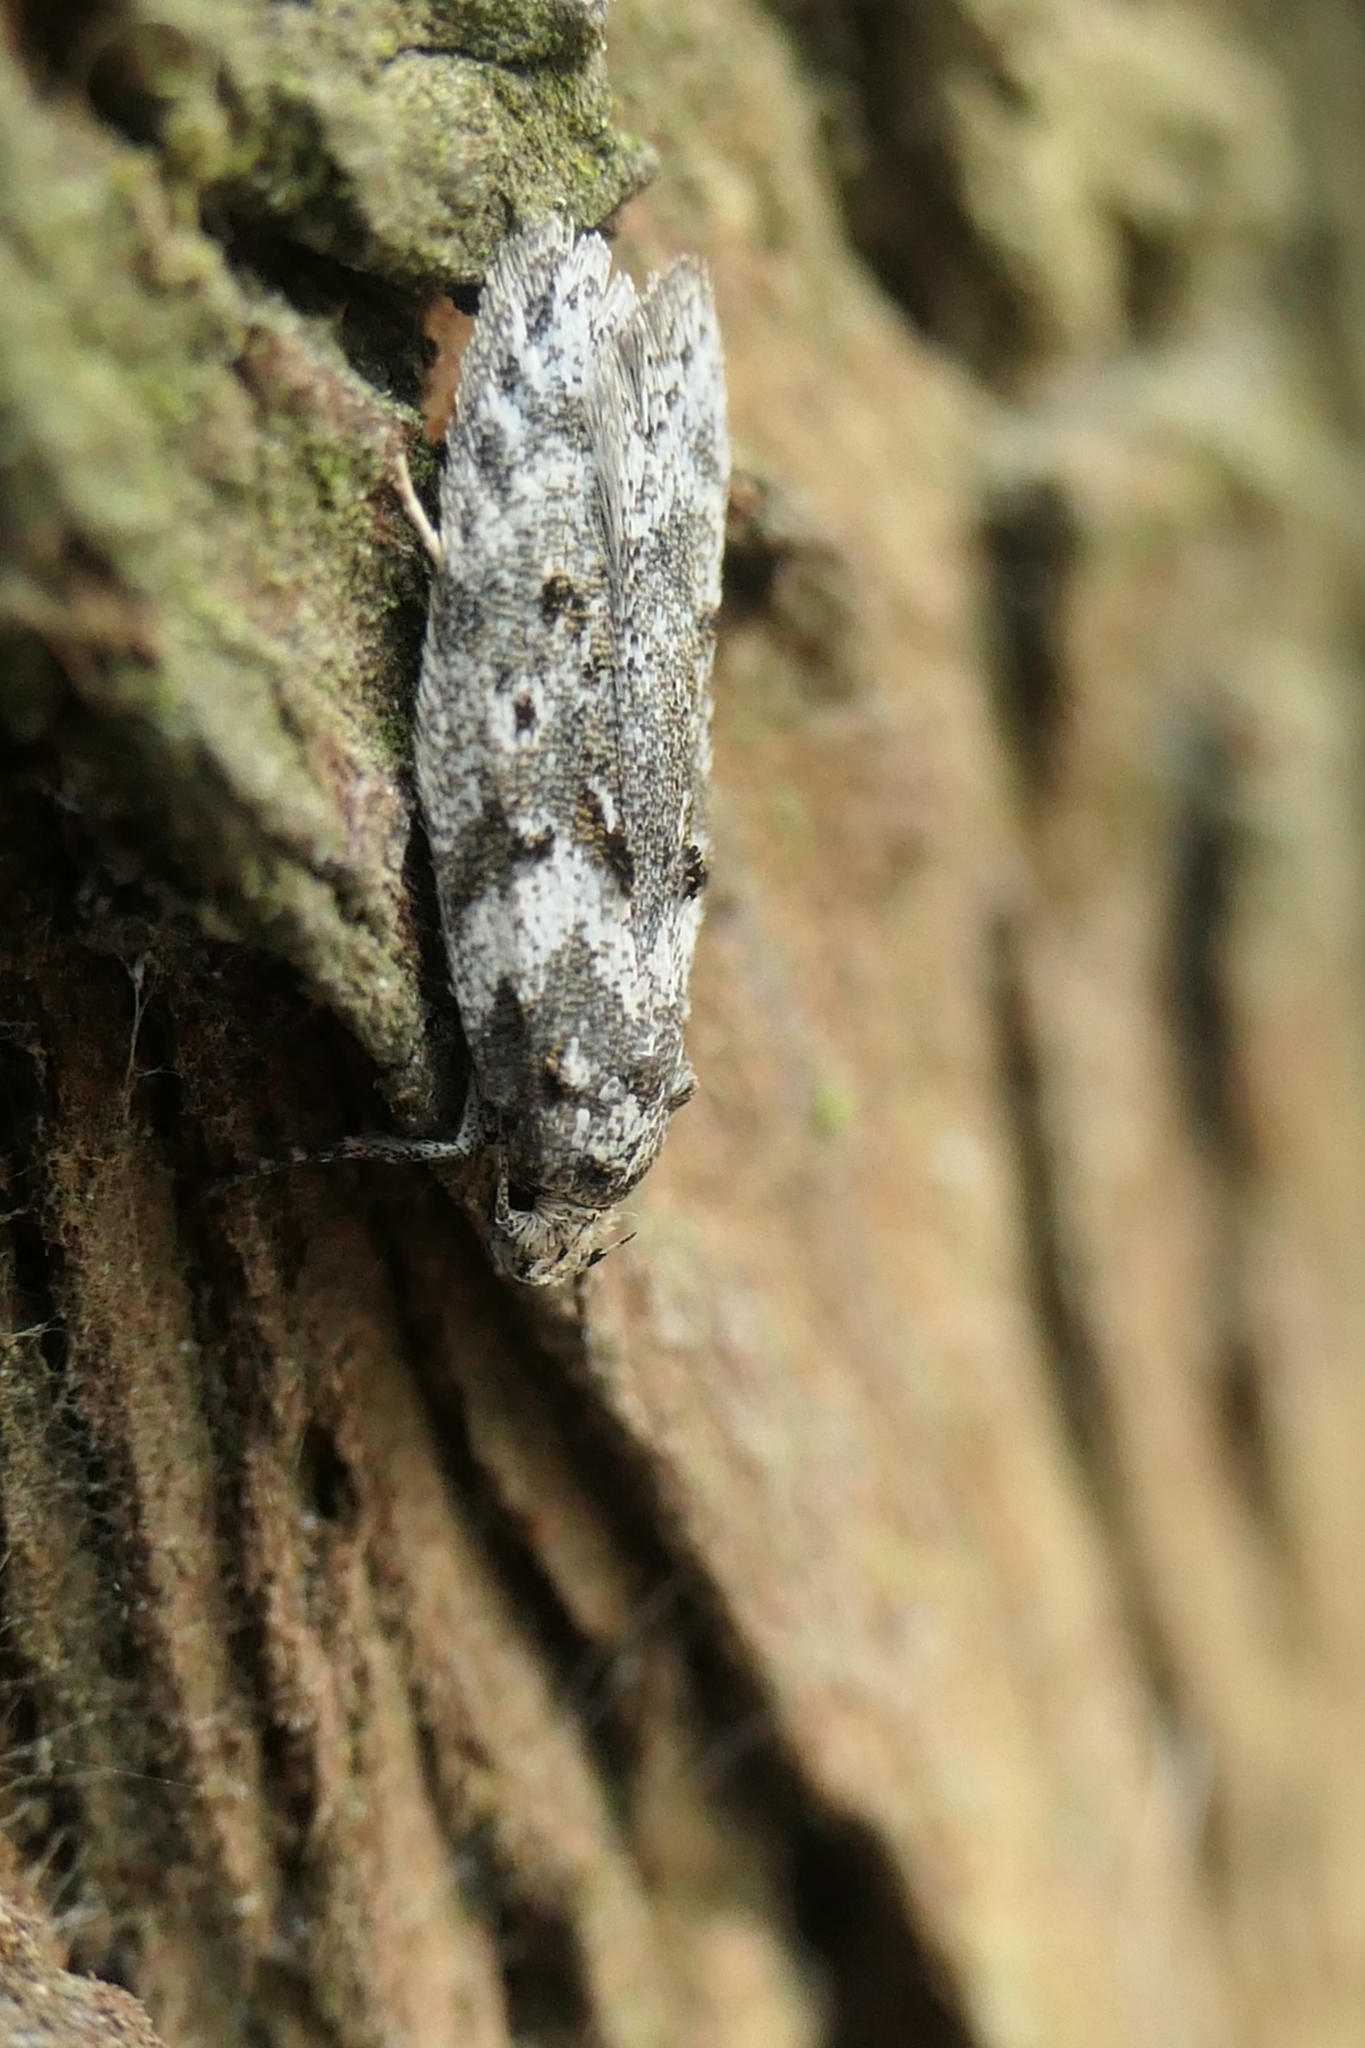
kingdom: Animalia
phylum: Arthropoda
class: Insecta
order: Lepidoptera
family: Oecophoridae
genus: Izatha
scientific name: Izatha convulsella
